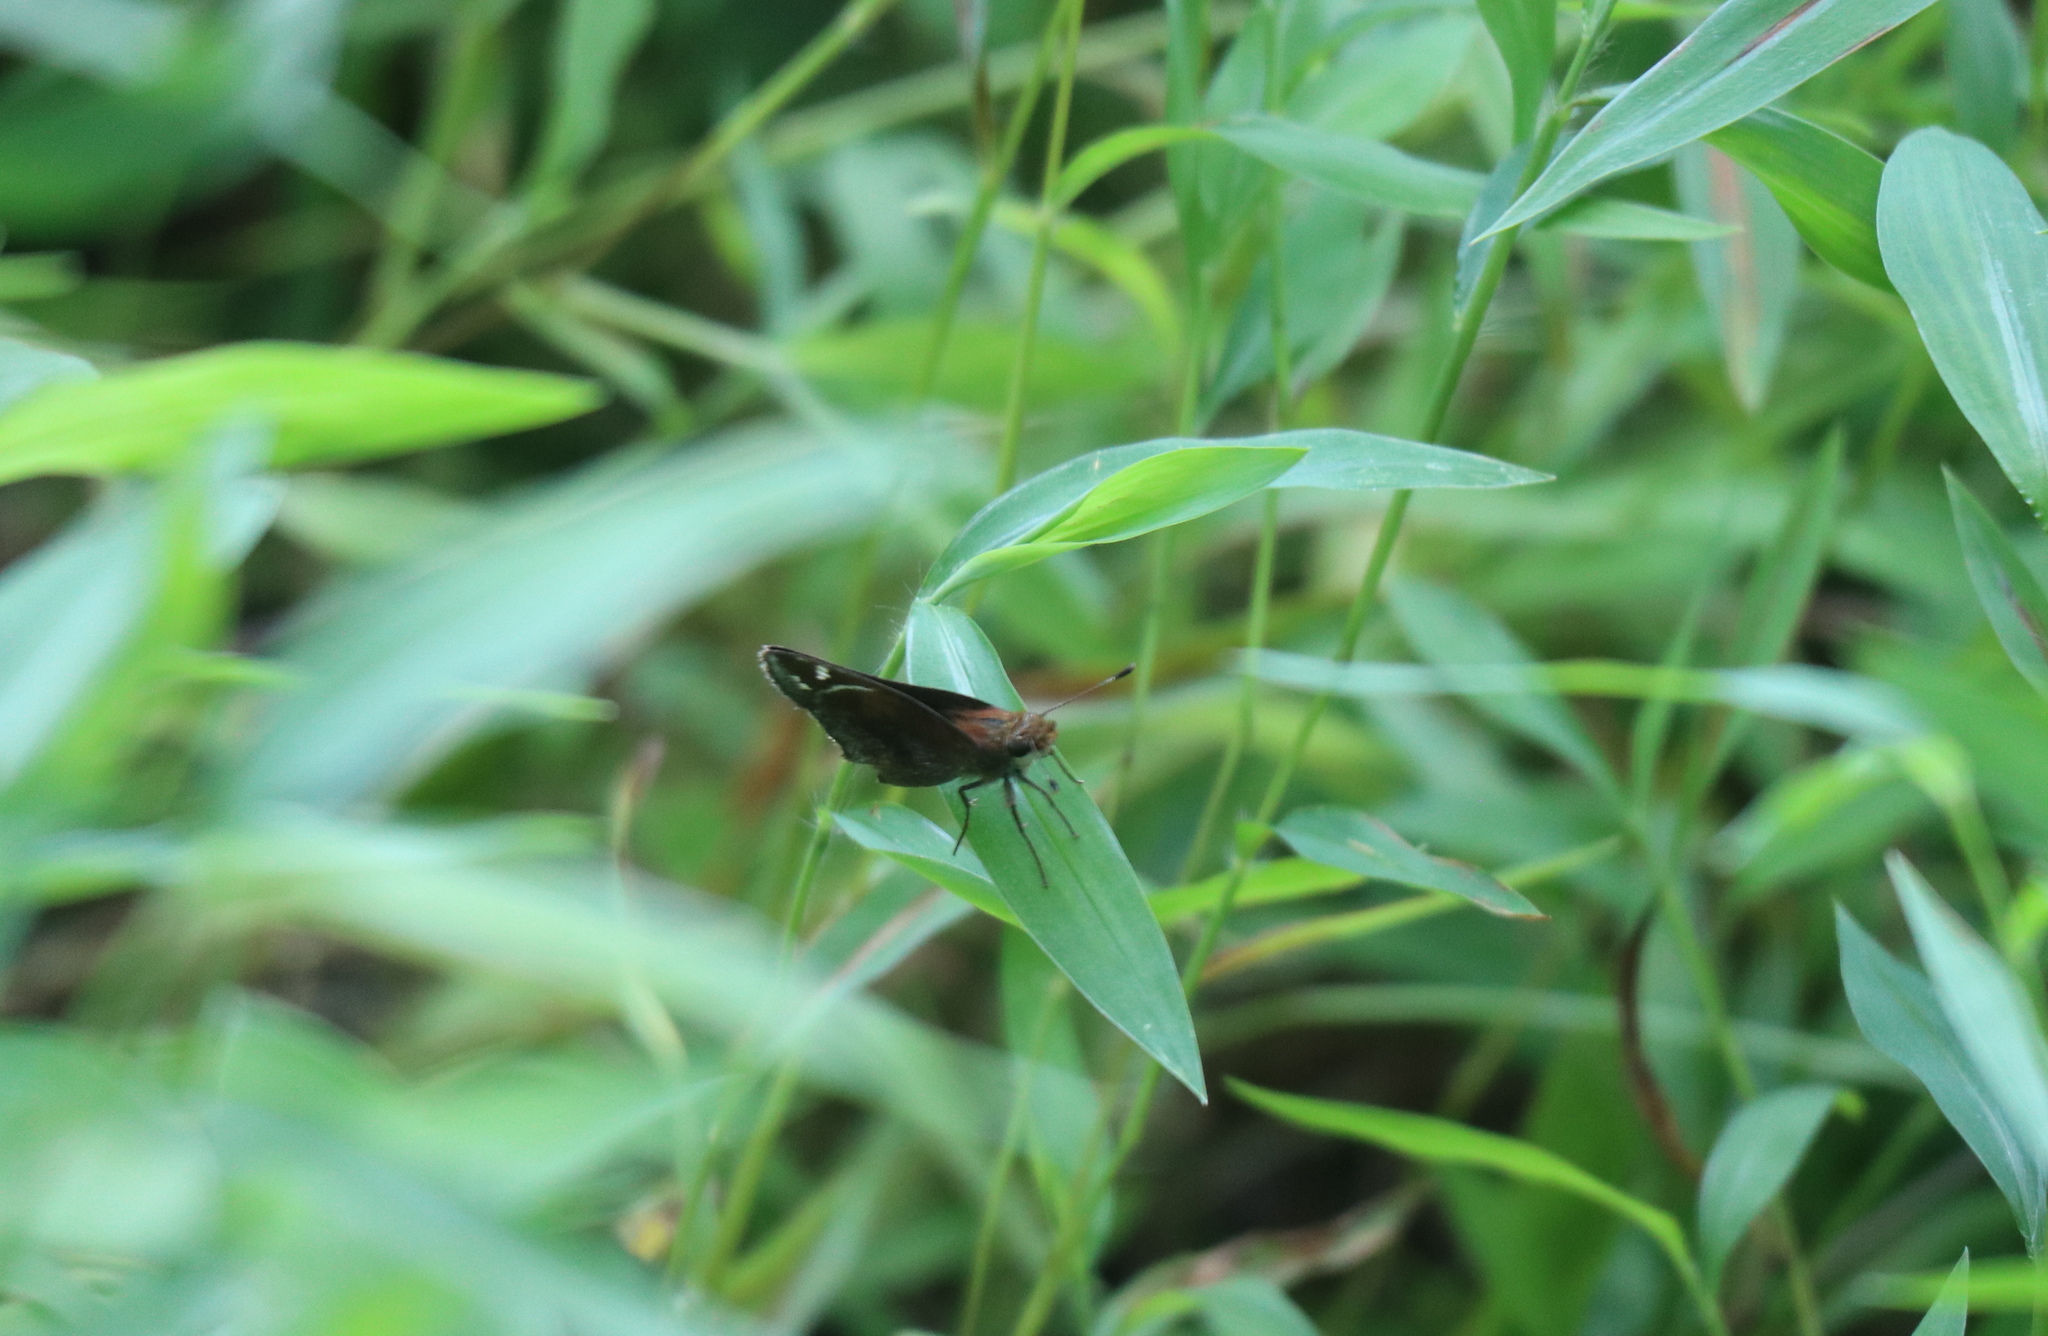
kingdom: Animalia
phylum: Arthropoda
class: Insecta
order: Lepidoptera
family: Hesperiidae
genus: Lon
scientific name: Lon zabulon
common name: Zabulon skipper
